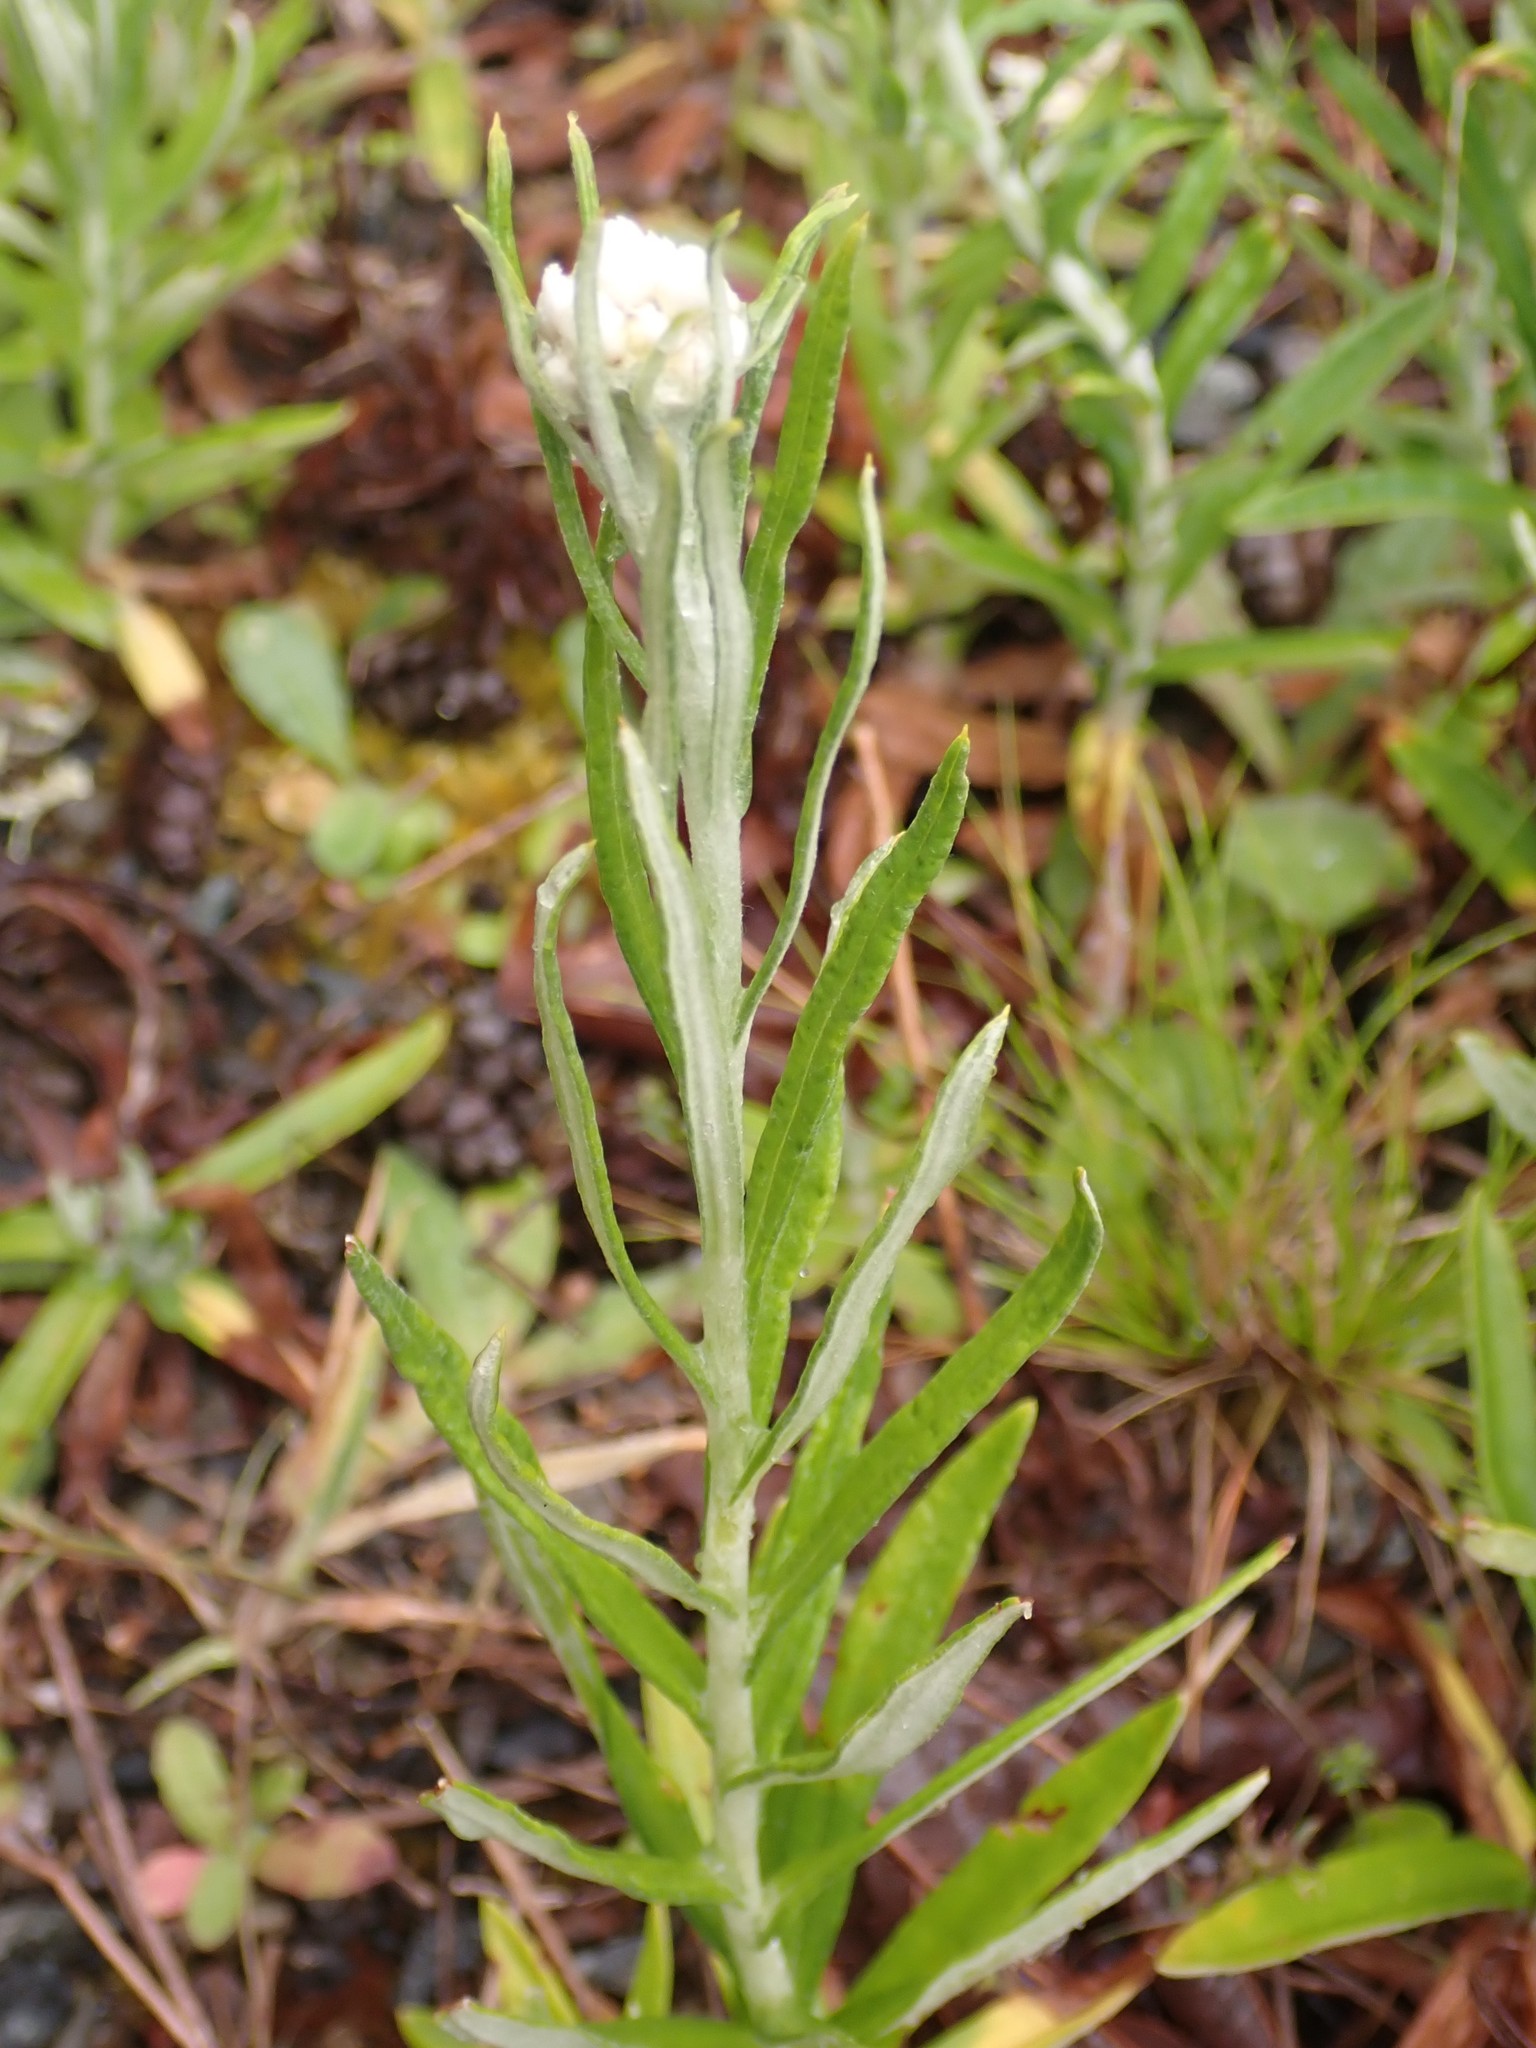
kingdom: Plantae
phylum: Tracheophyta
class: Magnoliopsida
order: Asterales
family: Asteraceae
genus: Anaphalis
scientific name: Anaphalis margaritacea
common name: Pearly everlasting
